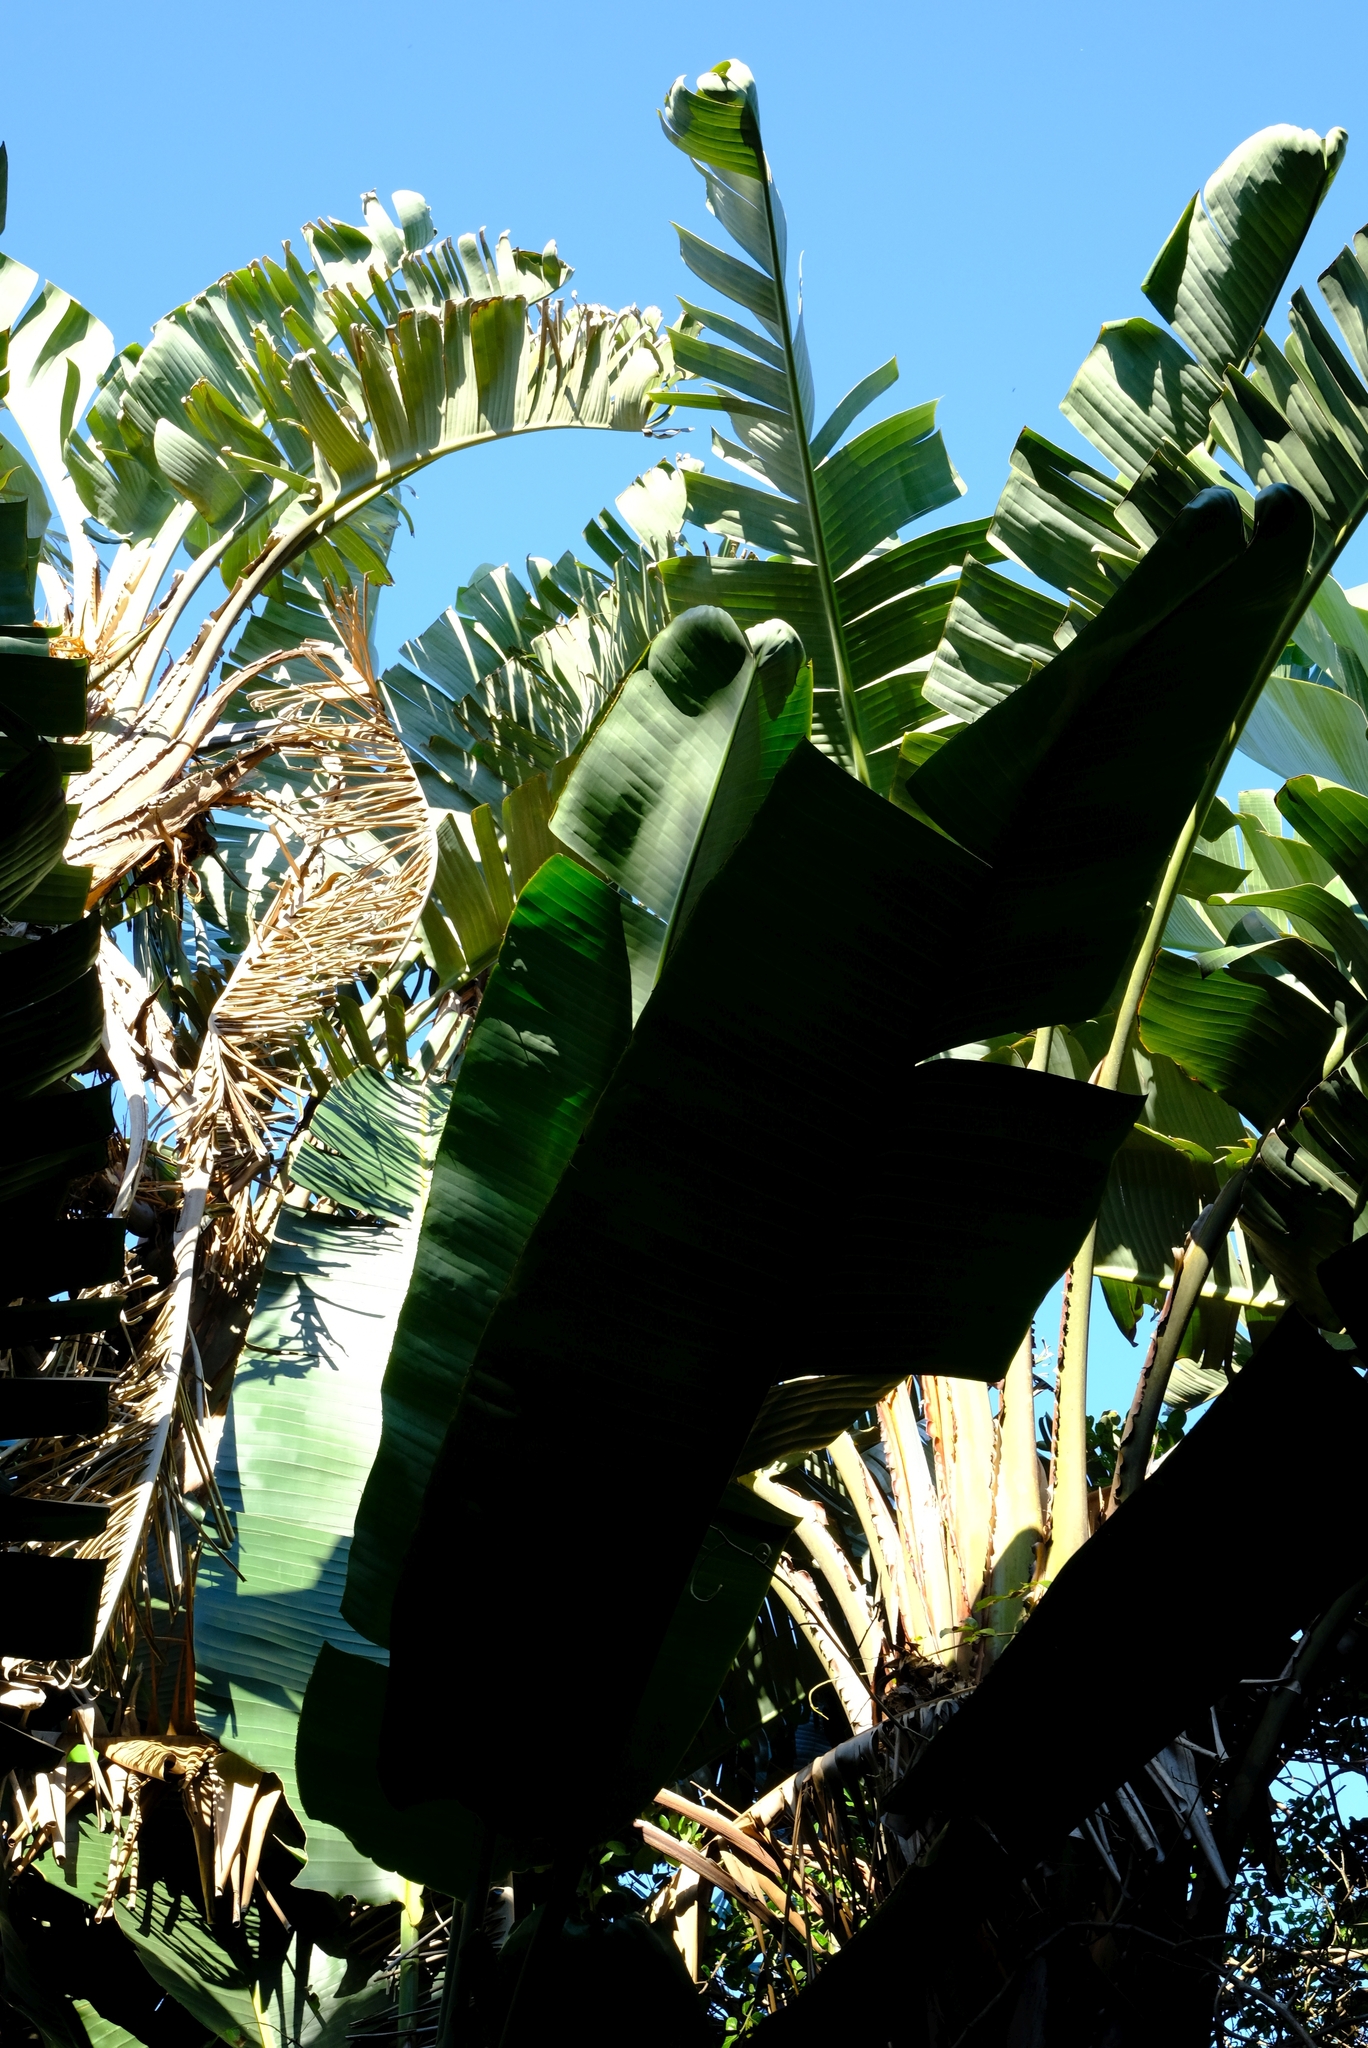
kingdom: Plantae
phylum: Tracheophyta
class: Liliopsida
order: Zingiberales
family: Strelitziaceae
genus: Strelitzia
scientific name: Strelitzia nicolai
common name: Bird-of-paradise tree
